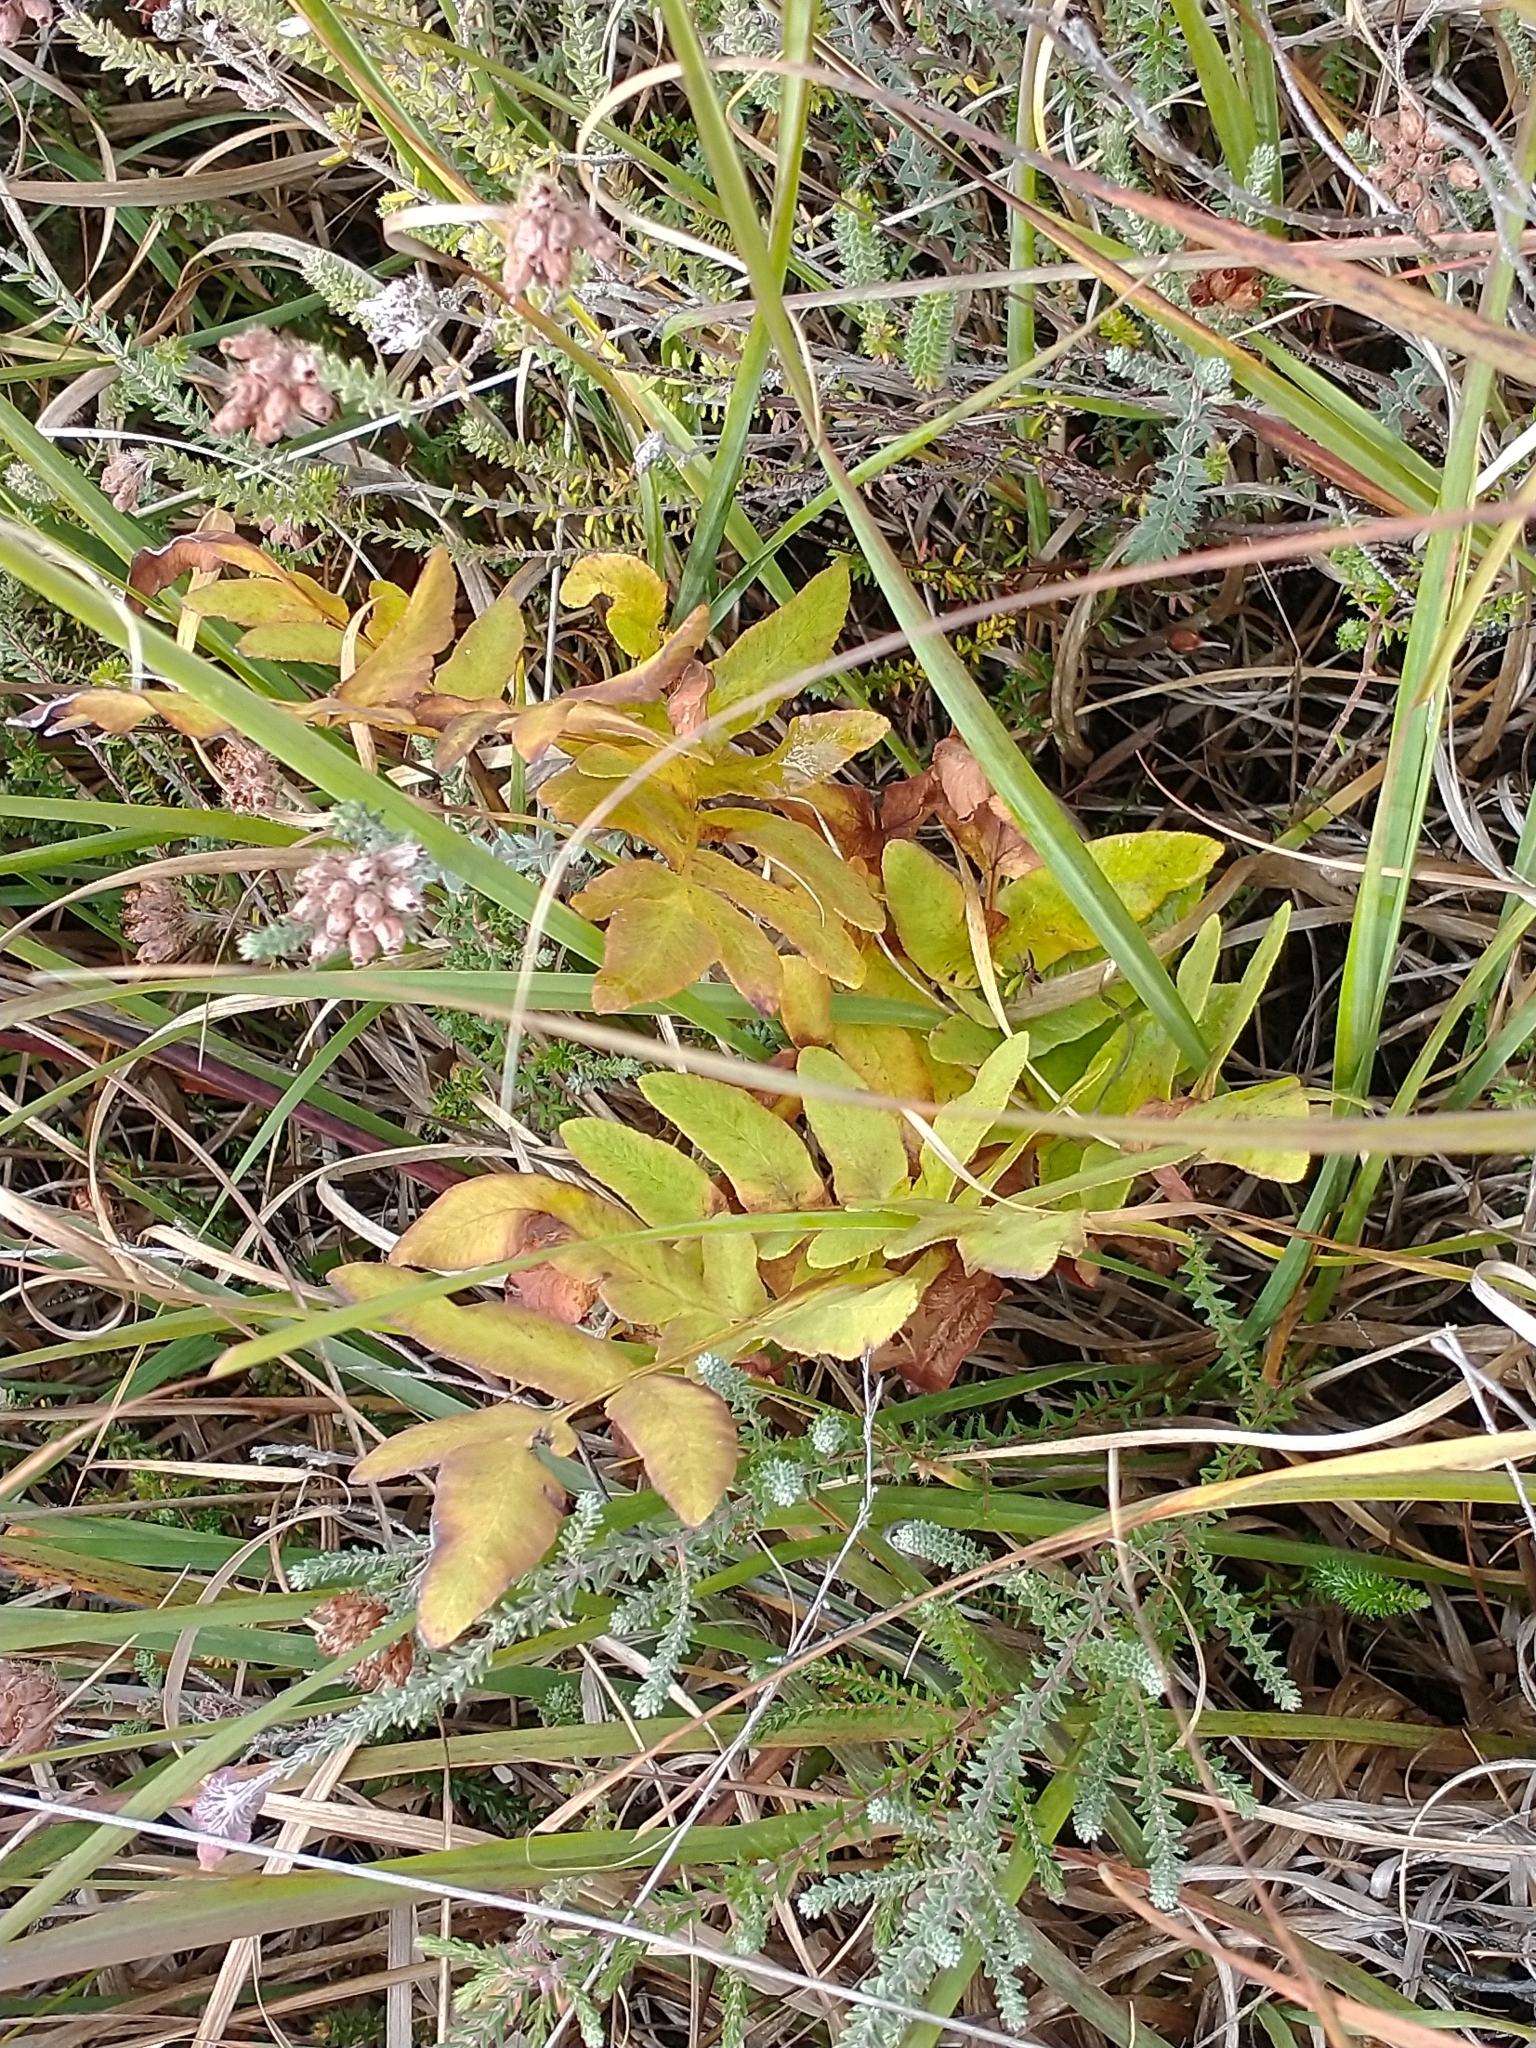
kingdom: Plantae
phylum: Tracheophyta
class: Polypodiopsida
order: Osmundales
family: Osmundaceae
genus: Osmunda
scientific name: Osmunda regalis
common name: Royal fern
